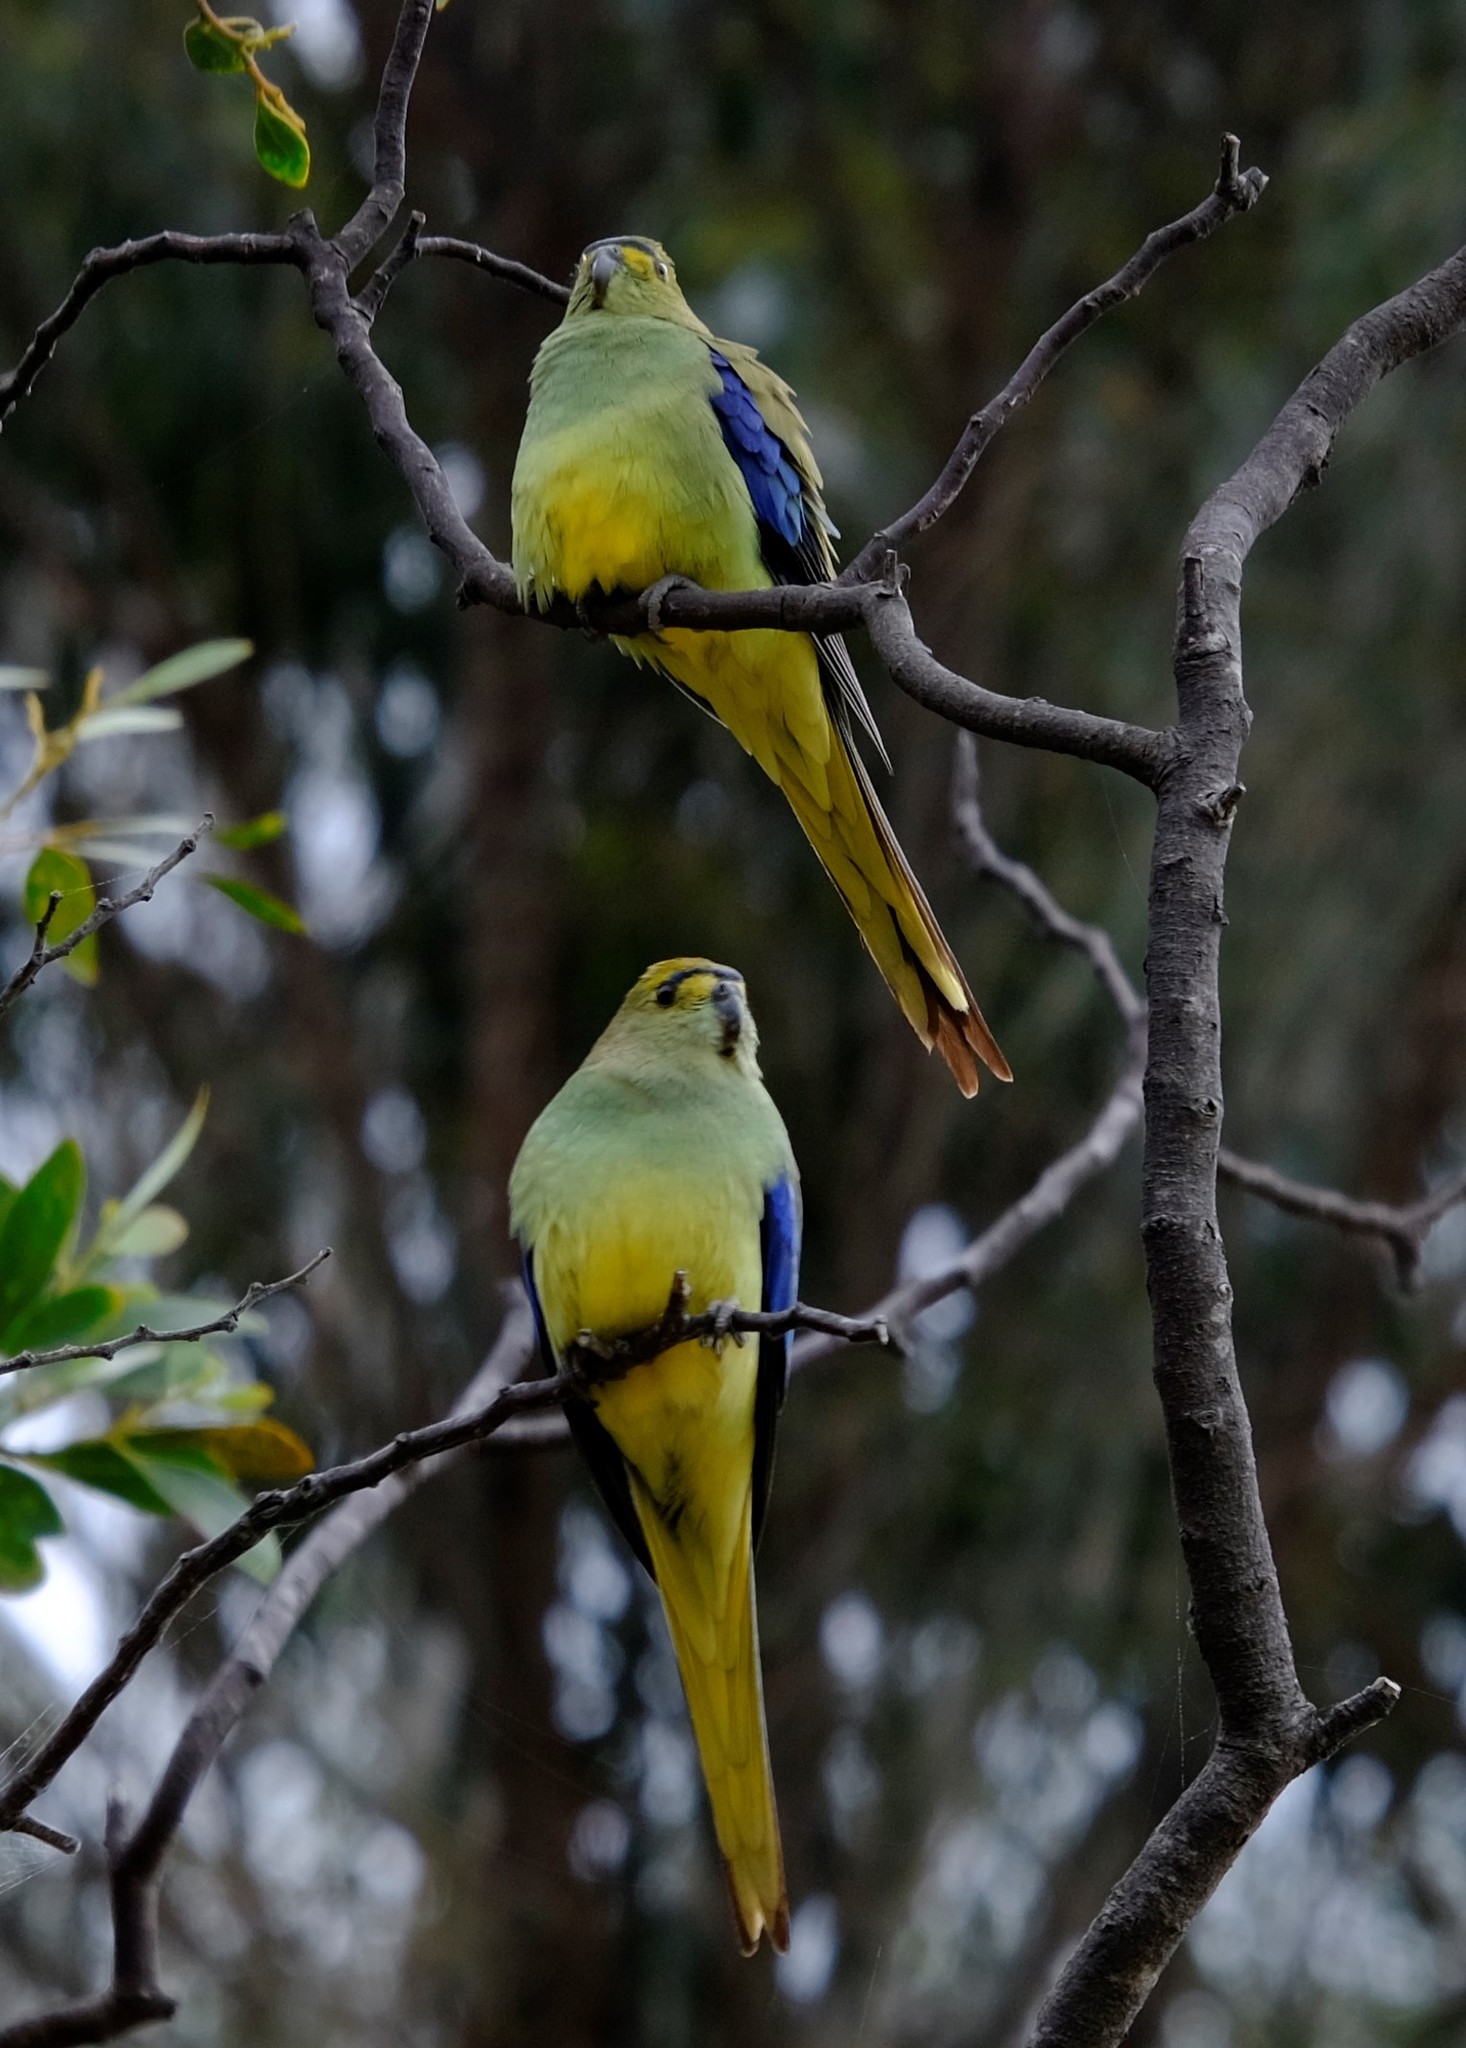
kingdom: Animalia
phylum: Chordata
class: Aves
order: Psittaciformes
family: Psittacidae
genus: Neophema
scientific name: Neophema chrysostoma
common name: Blue-winged parrot
